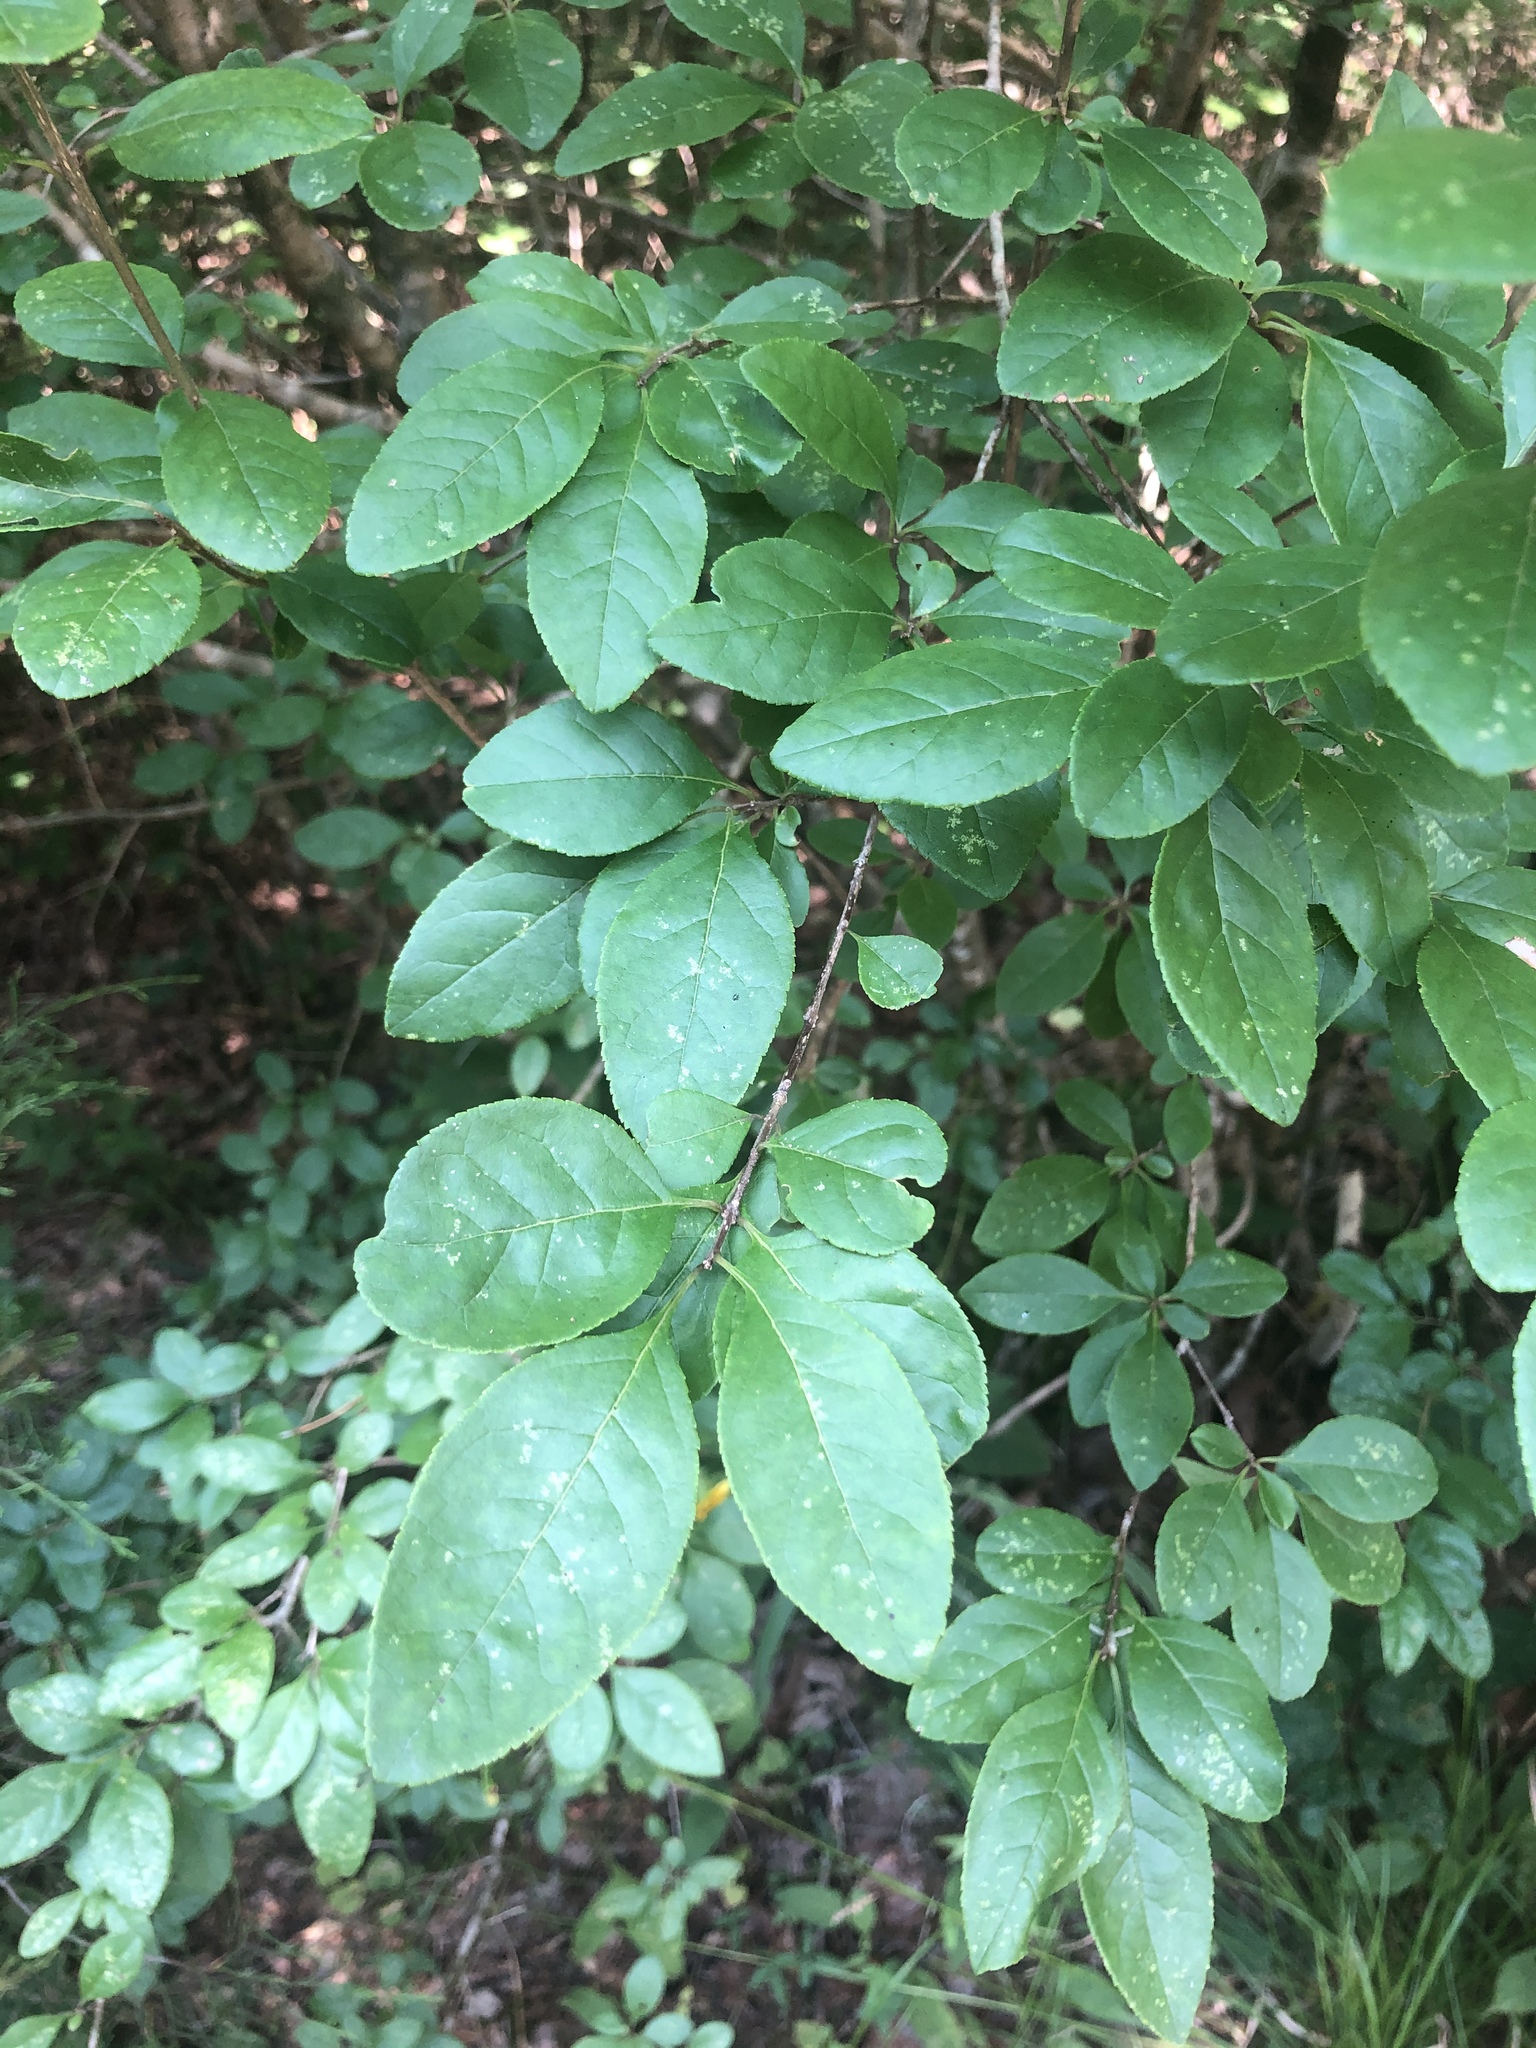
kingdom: Plantae
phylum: Tracheophyta
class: Magnoliopsida
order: Lamiales
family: Oleaceae
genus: Forestiera
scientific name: Forestiera ligustrina
